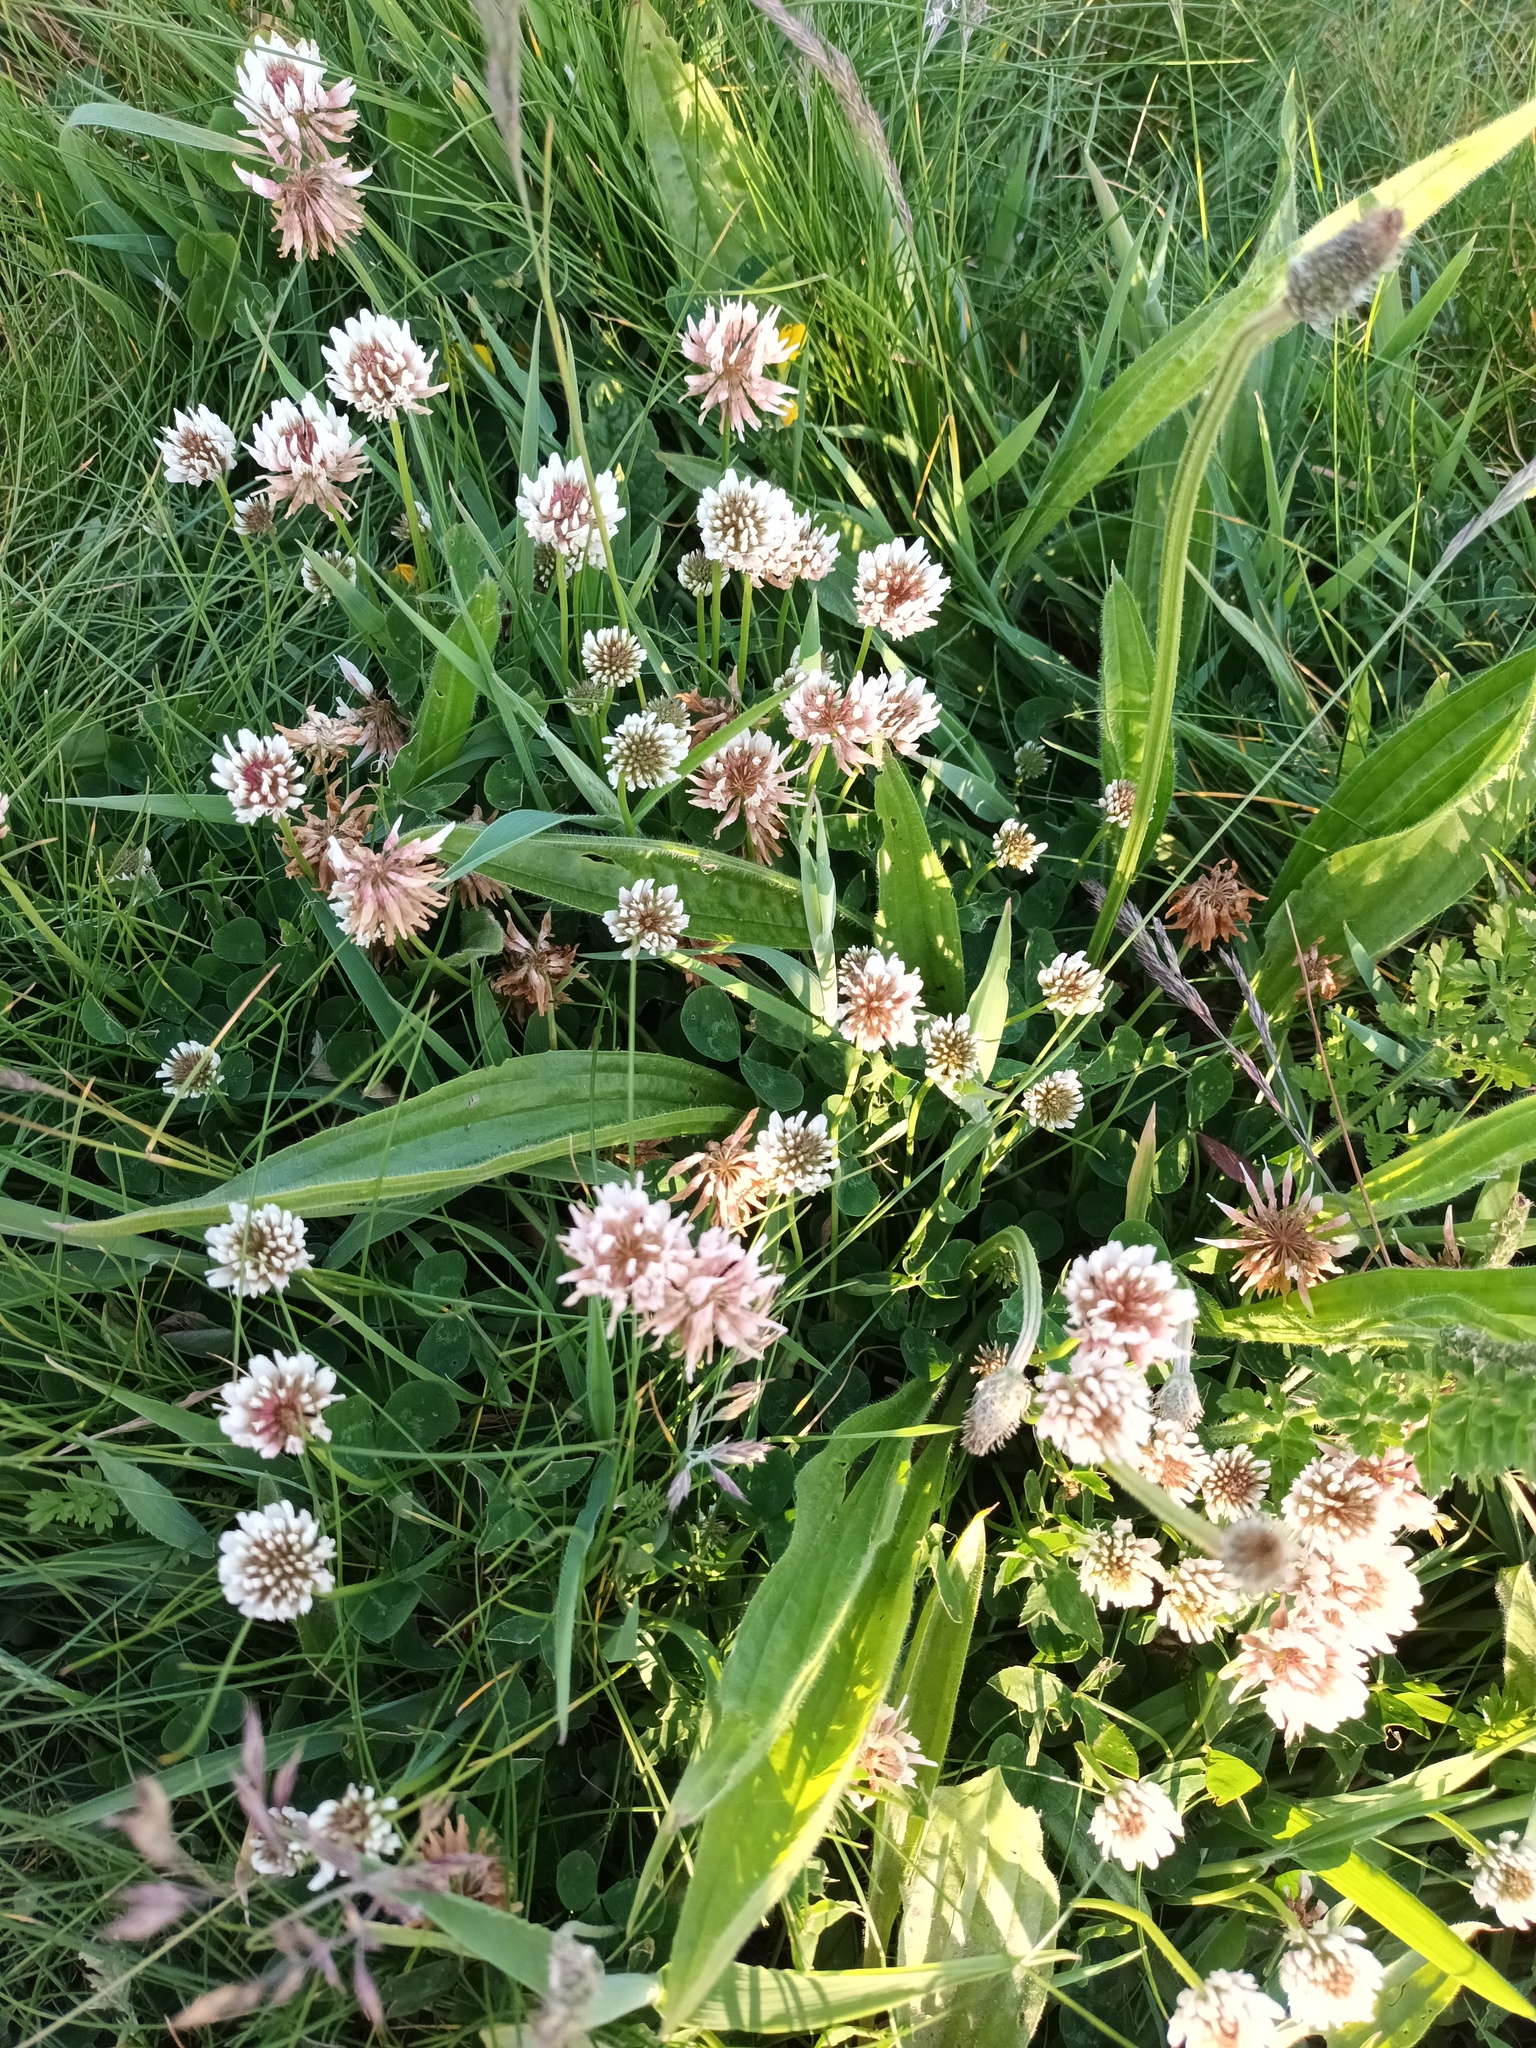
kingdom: Plantae
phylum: Tracheophyta
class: Magnoliopsida
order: Fabales
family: Fabaceae
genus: Trifolium
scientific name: Trifolium repens
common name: White clover
